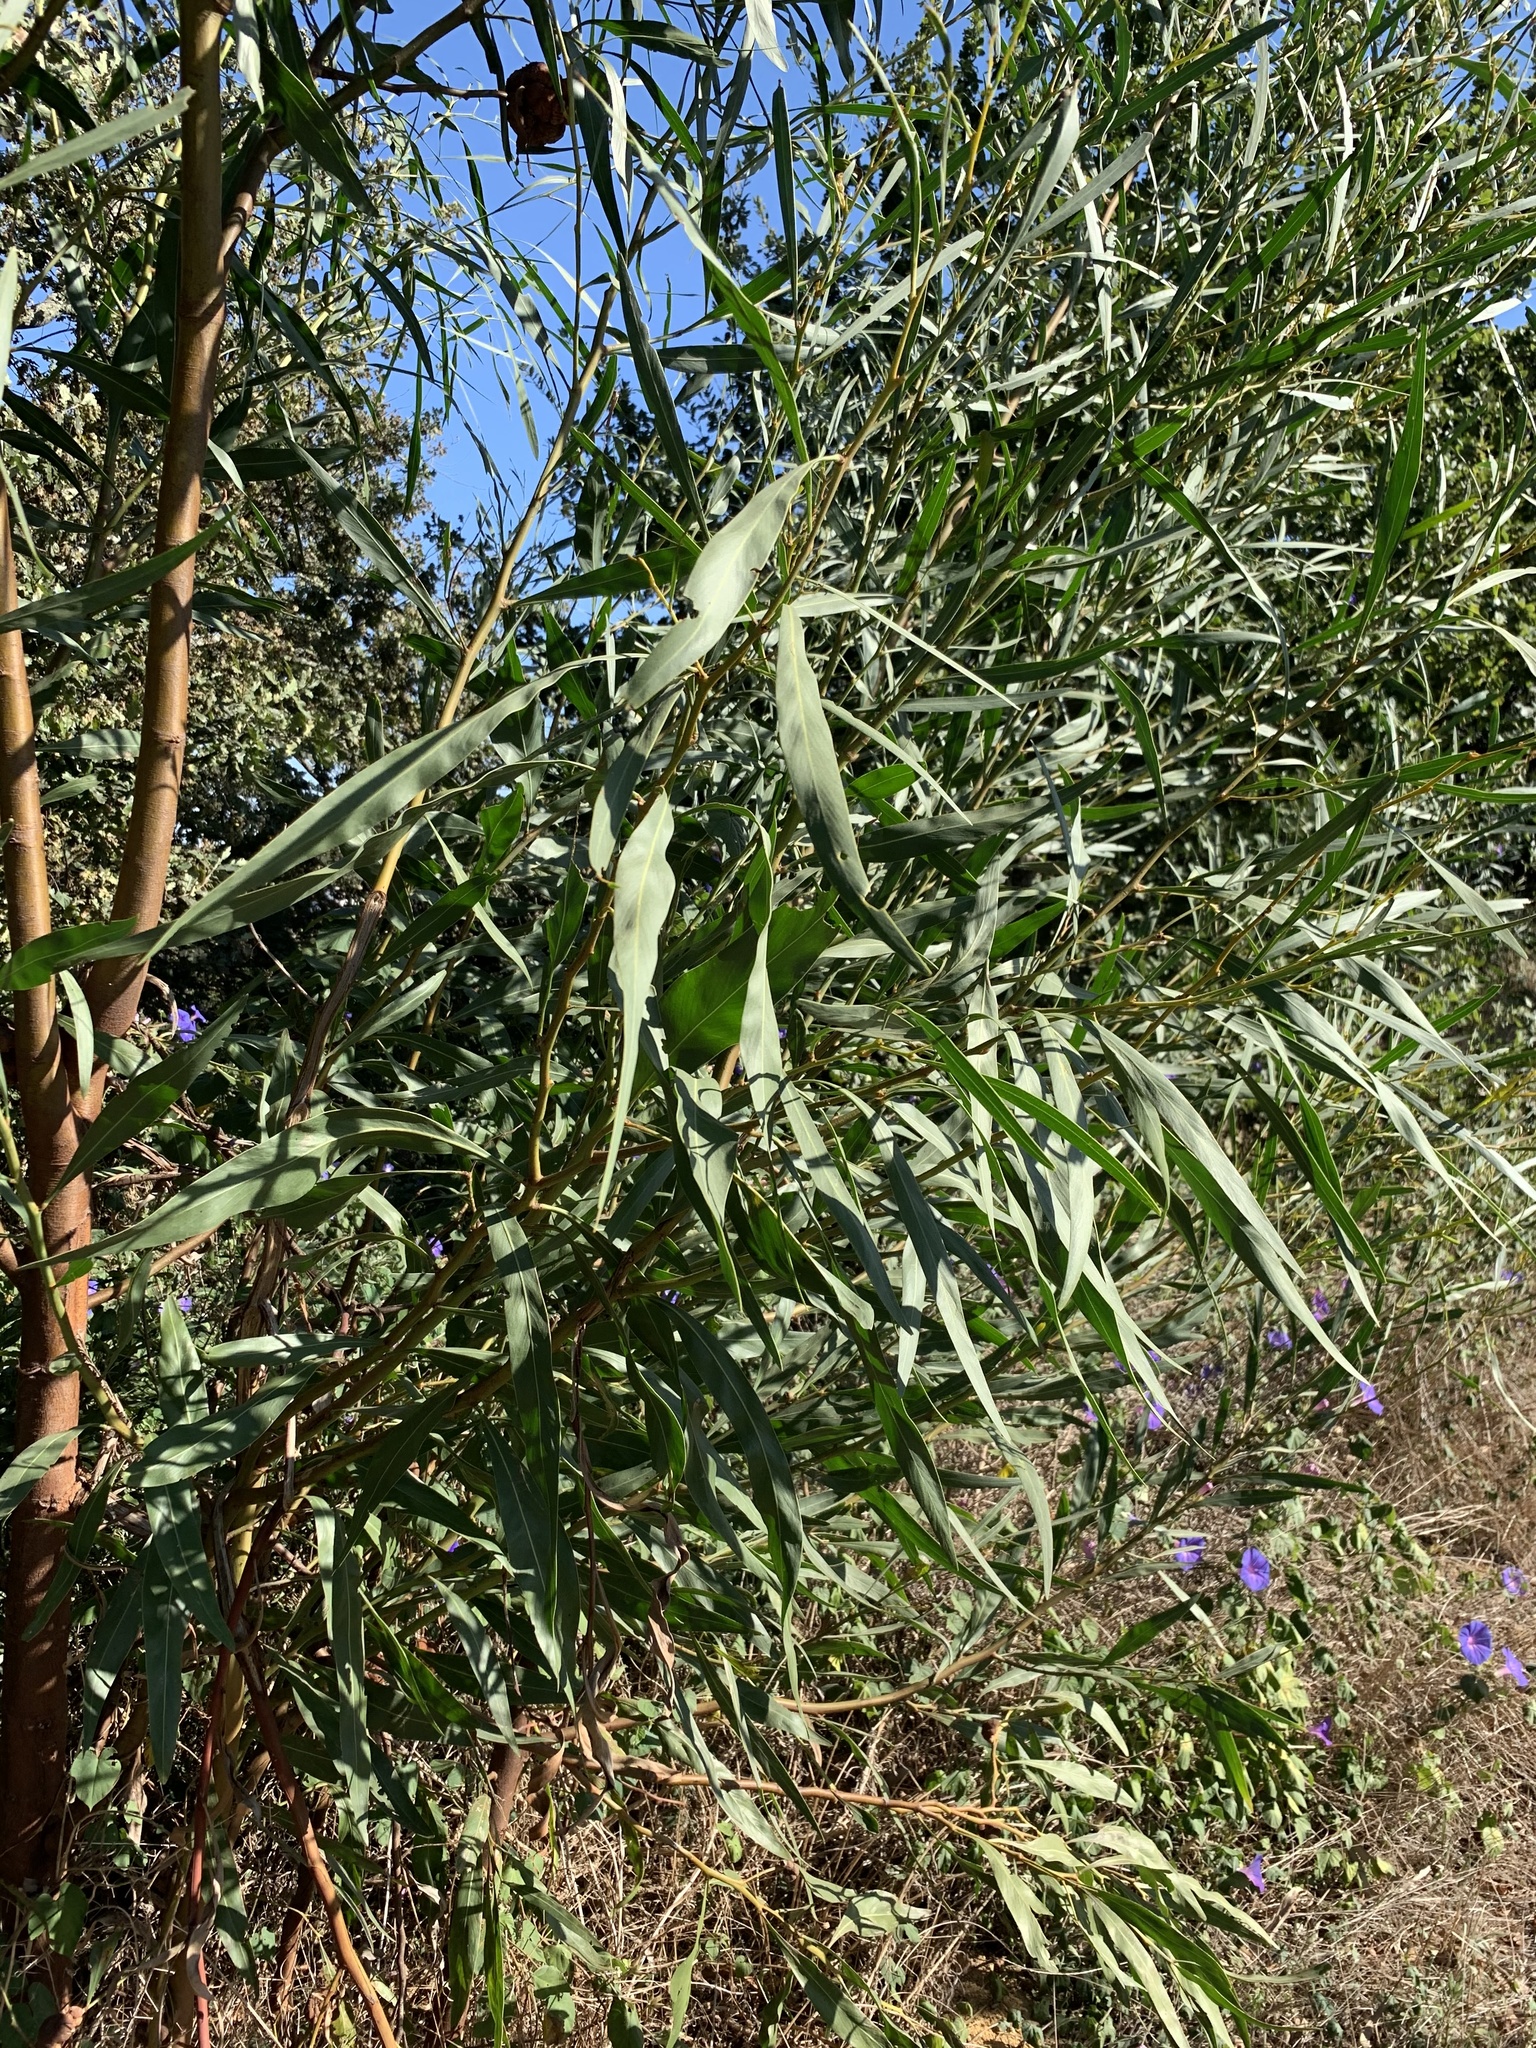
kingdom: Plantae
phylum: Tracheophyta
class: Magnoliopsida
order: Fabales
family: Fabaceae
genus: Acacia
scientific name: Acacia saligna
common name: Orange wattle
